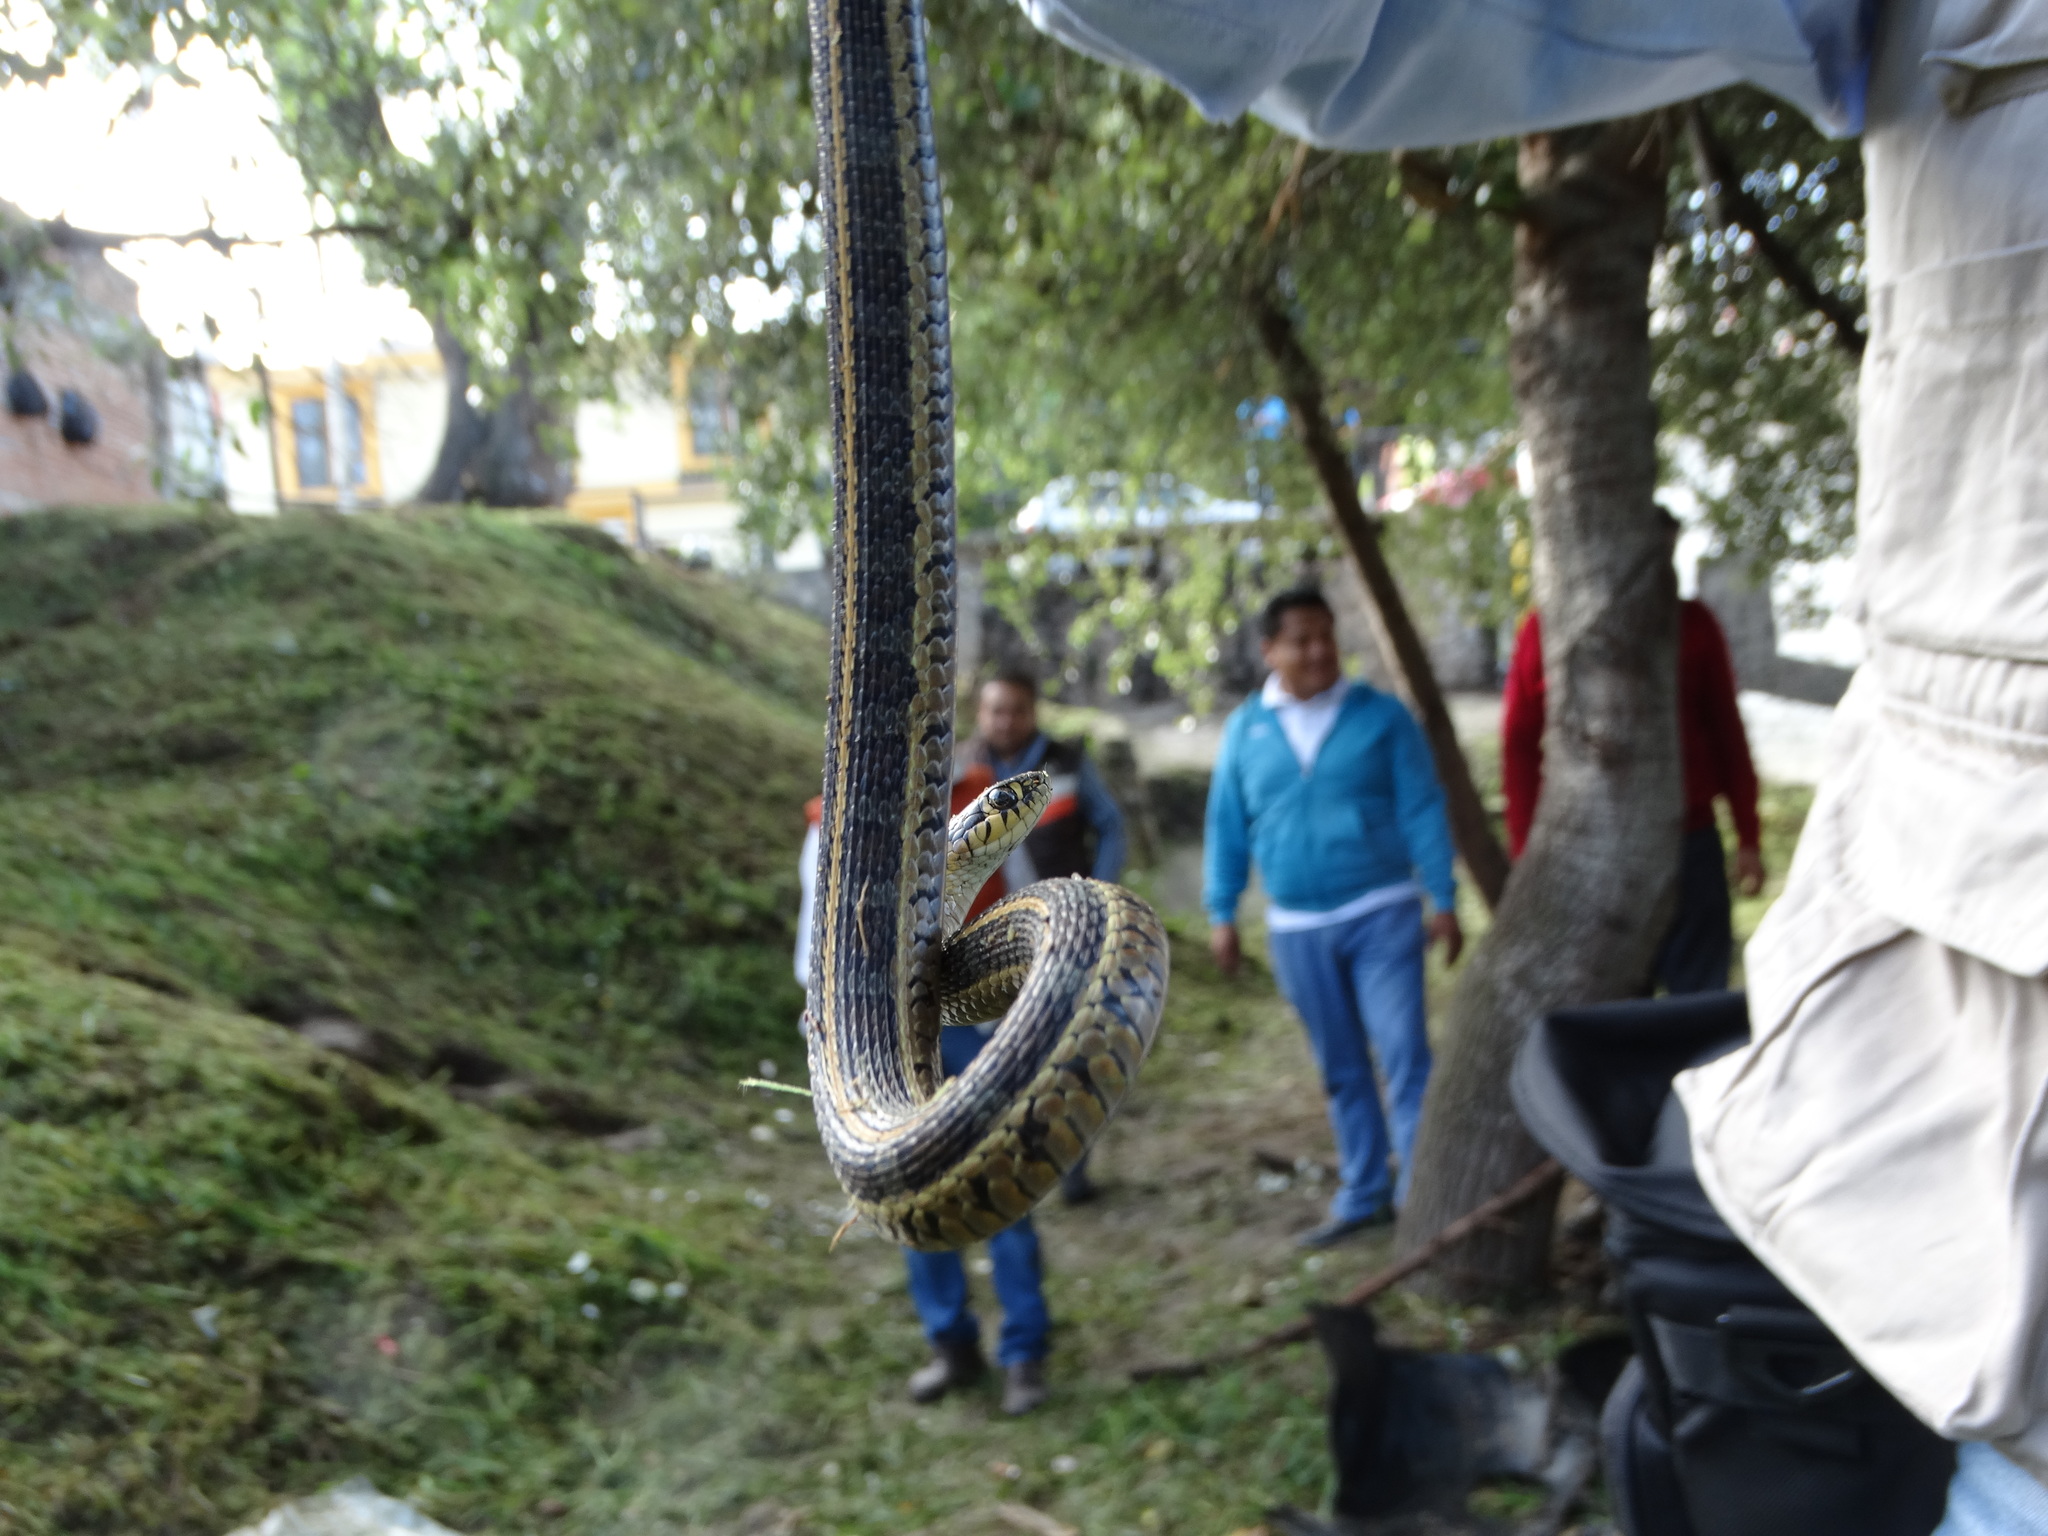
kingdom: Animalia
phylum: Chordata
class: Squamata
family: Colubridae
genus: Thamnophis
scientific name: Thamnophis scalaris
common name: Longtail alpine garter snake
